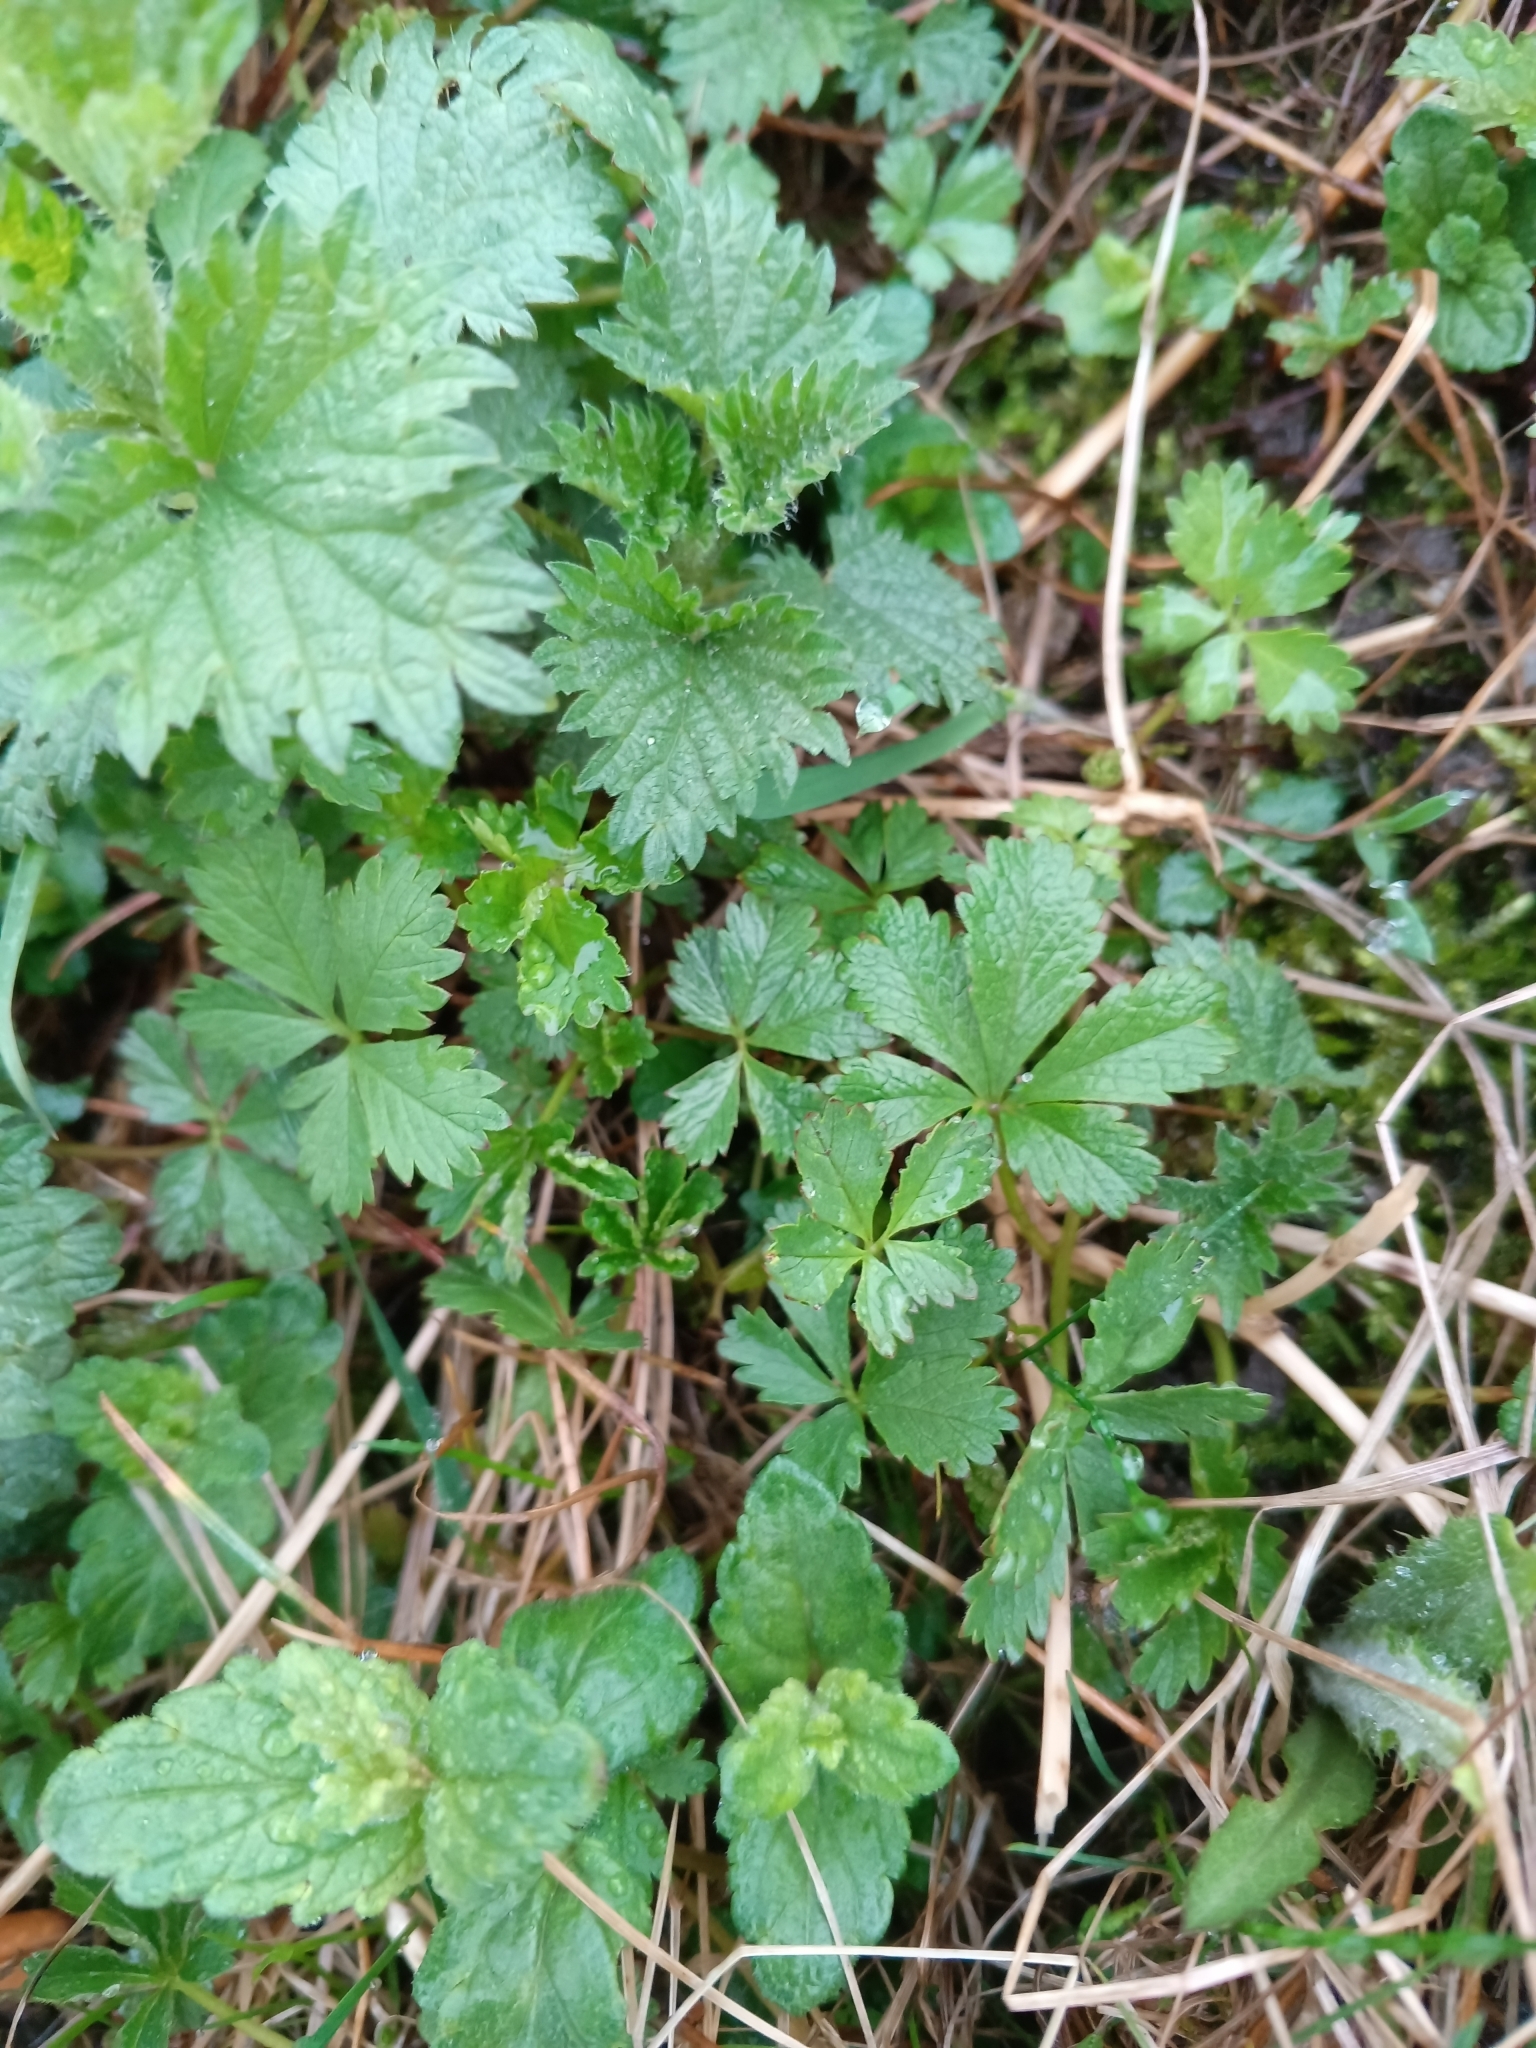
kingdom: Plantae
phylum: Tracheophyta
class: Magnoliopsida
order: Rosales
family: Rosaceae
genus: Potentilla
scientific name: Potentilla reptans
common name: Creeping cinquefoil
